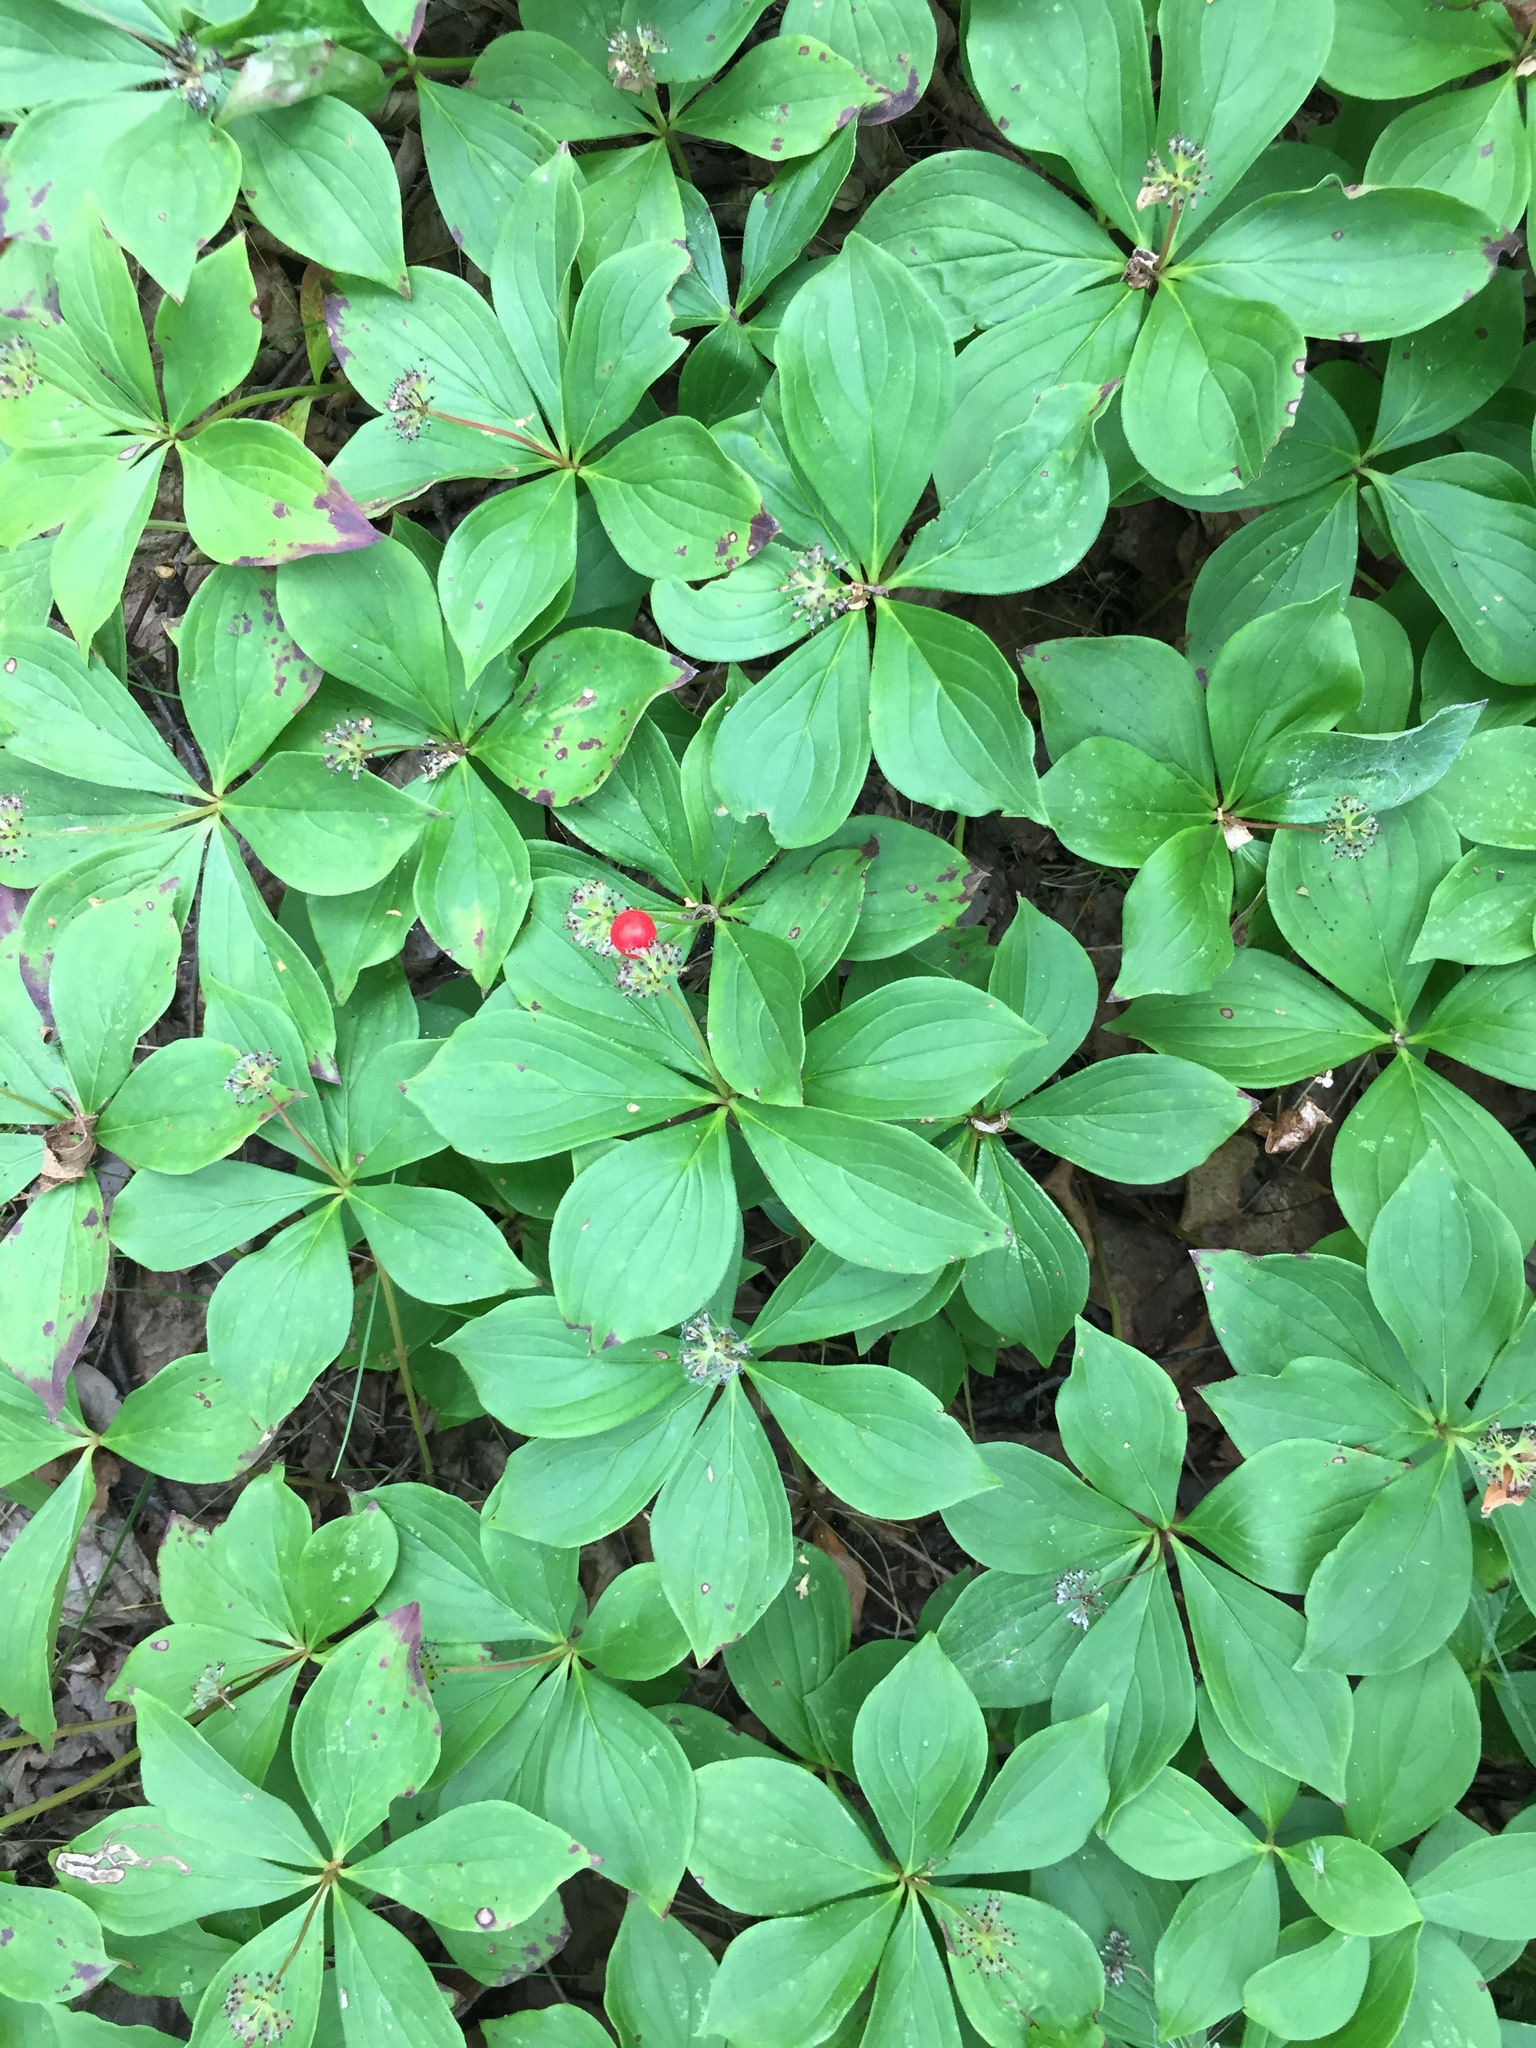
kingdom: Plantae
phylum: Tracheophyta
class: Magnoliopsida
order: Cornales
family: Cornaceae
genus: Cornus
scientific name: Cornus canadensis
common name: Creeping dogwood
